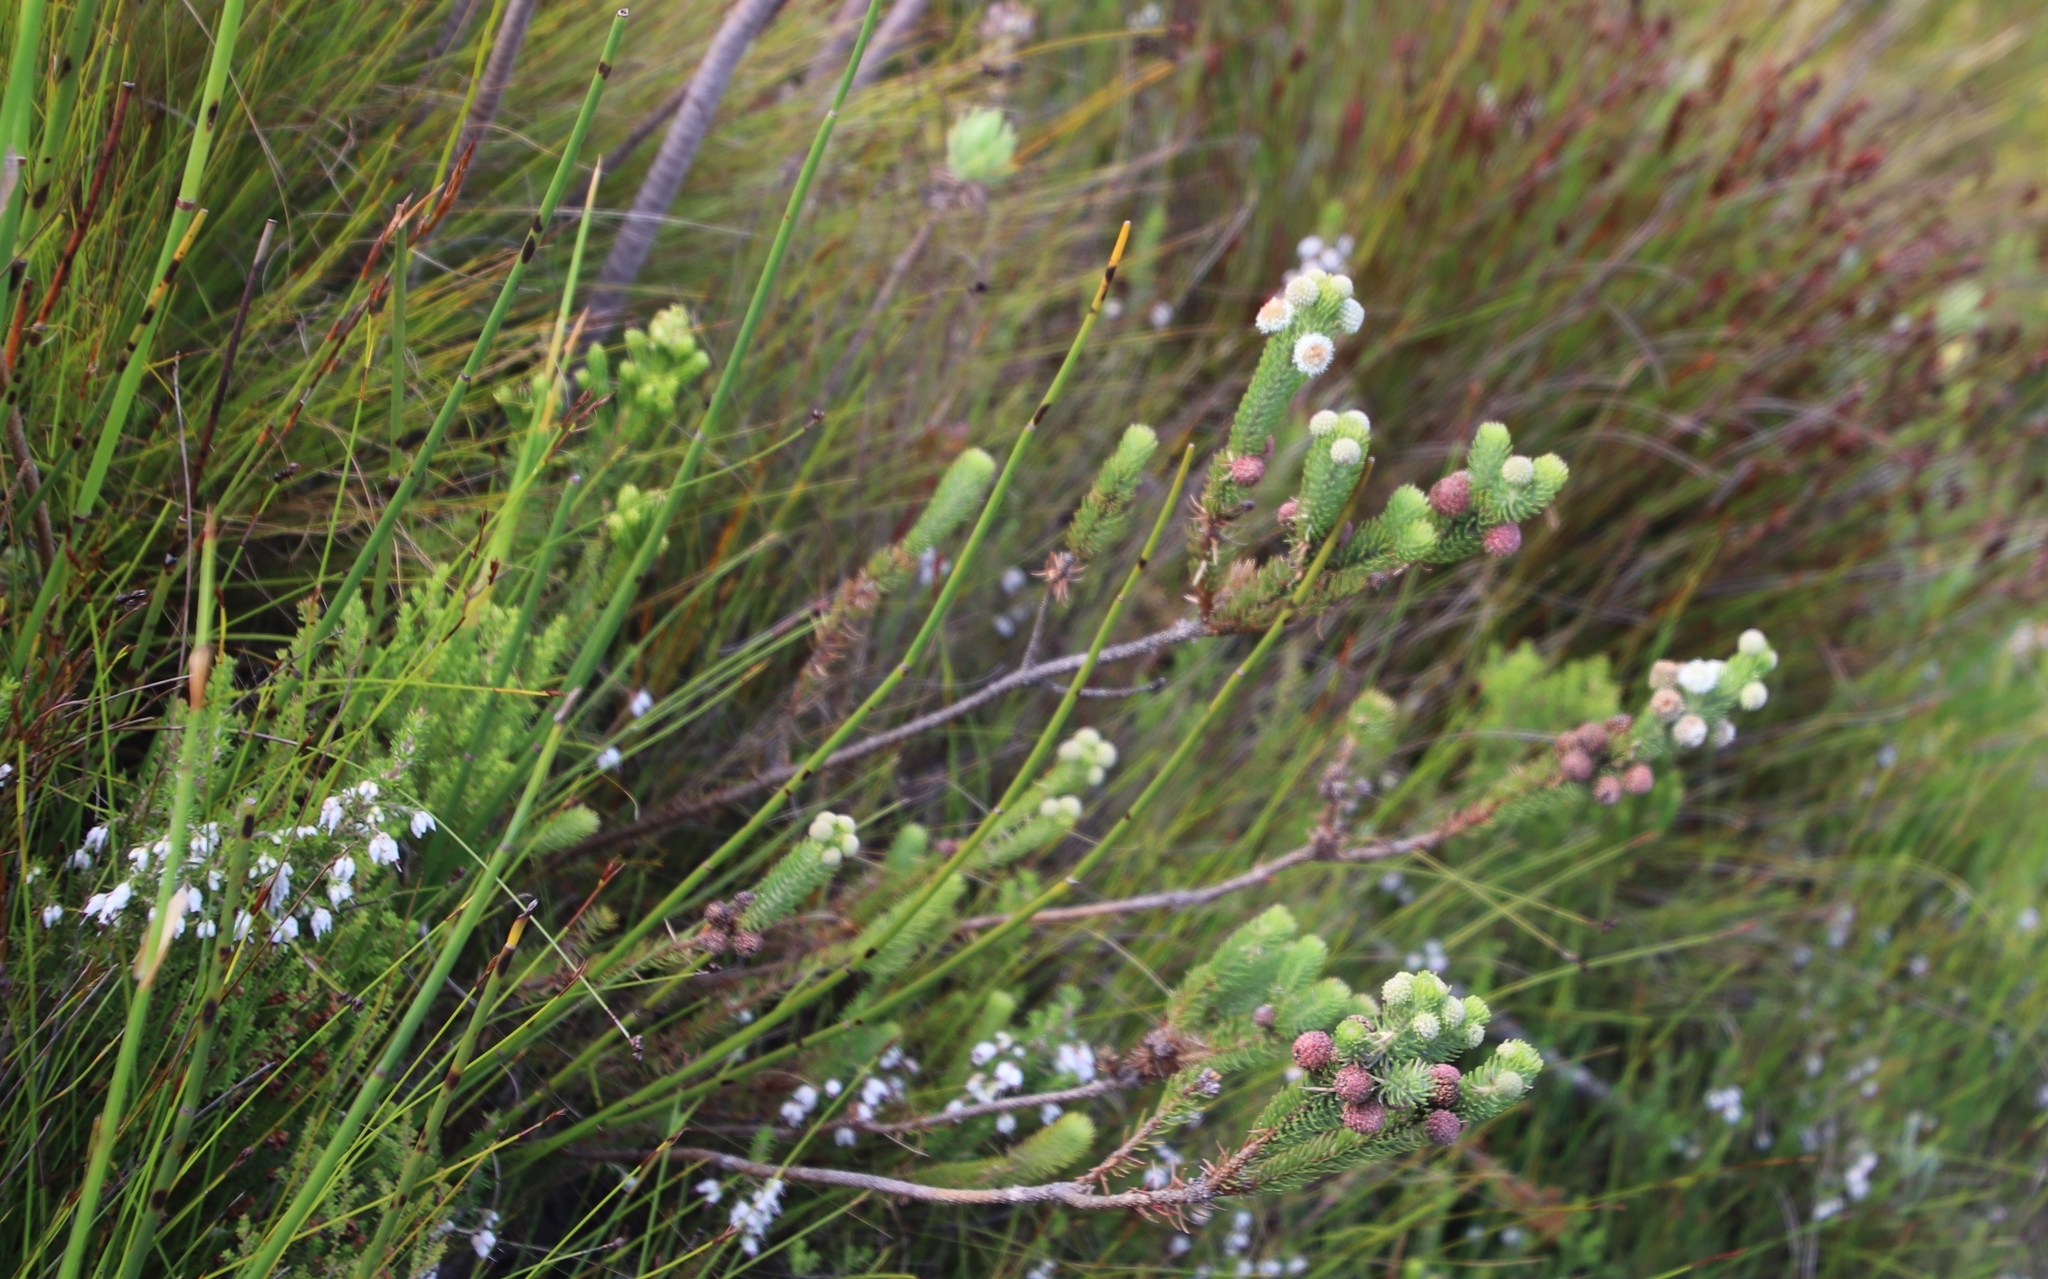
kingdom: Plantae
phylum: Tracheophyta
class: Magnoliopsida
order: Bruniales
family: Bruniaceae
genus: Berzelia
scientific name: Berzelia rubra
